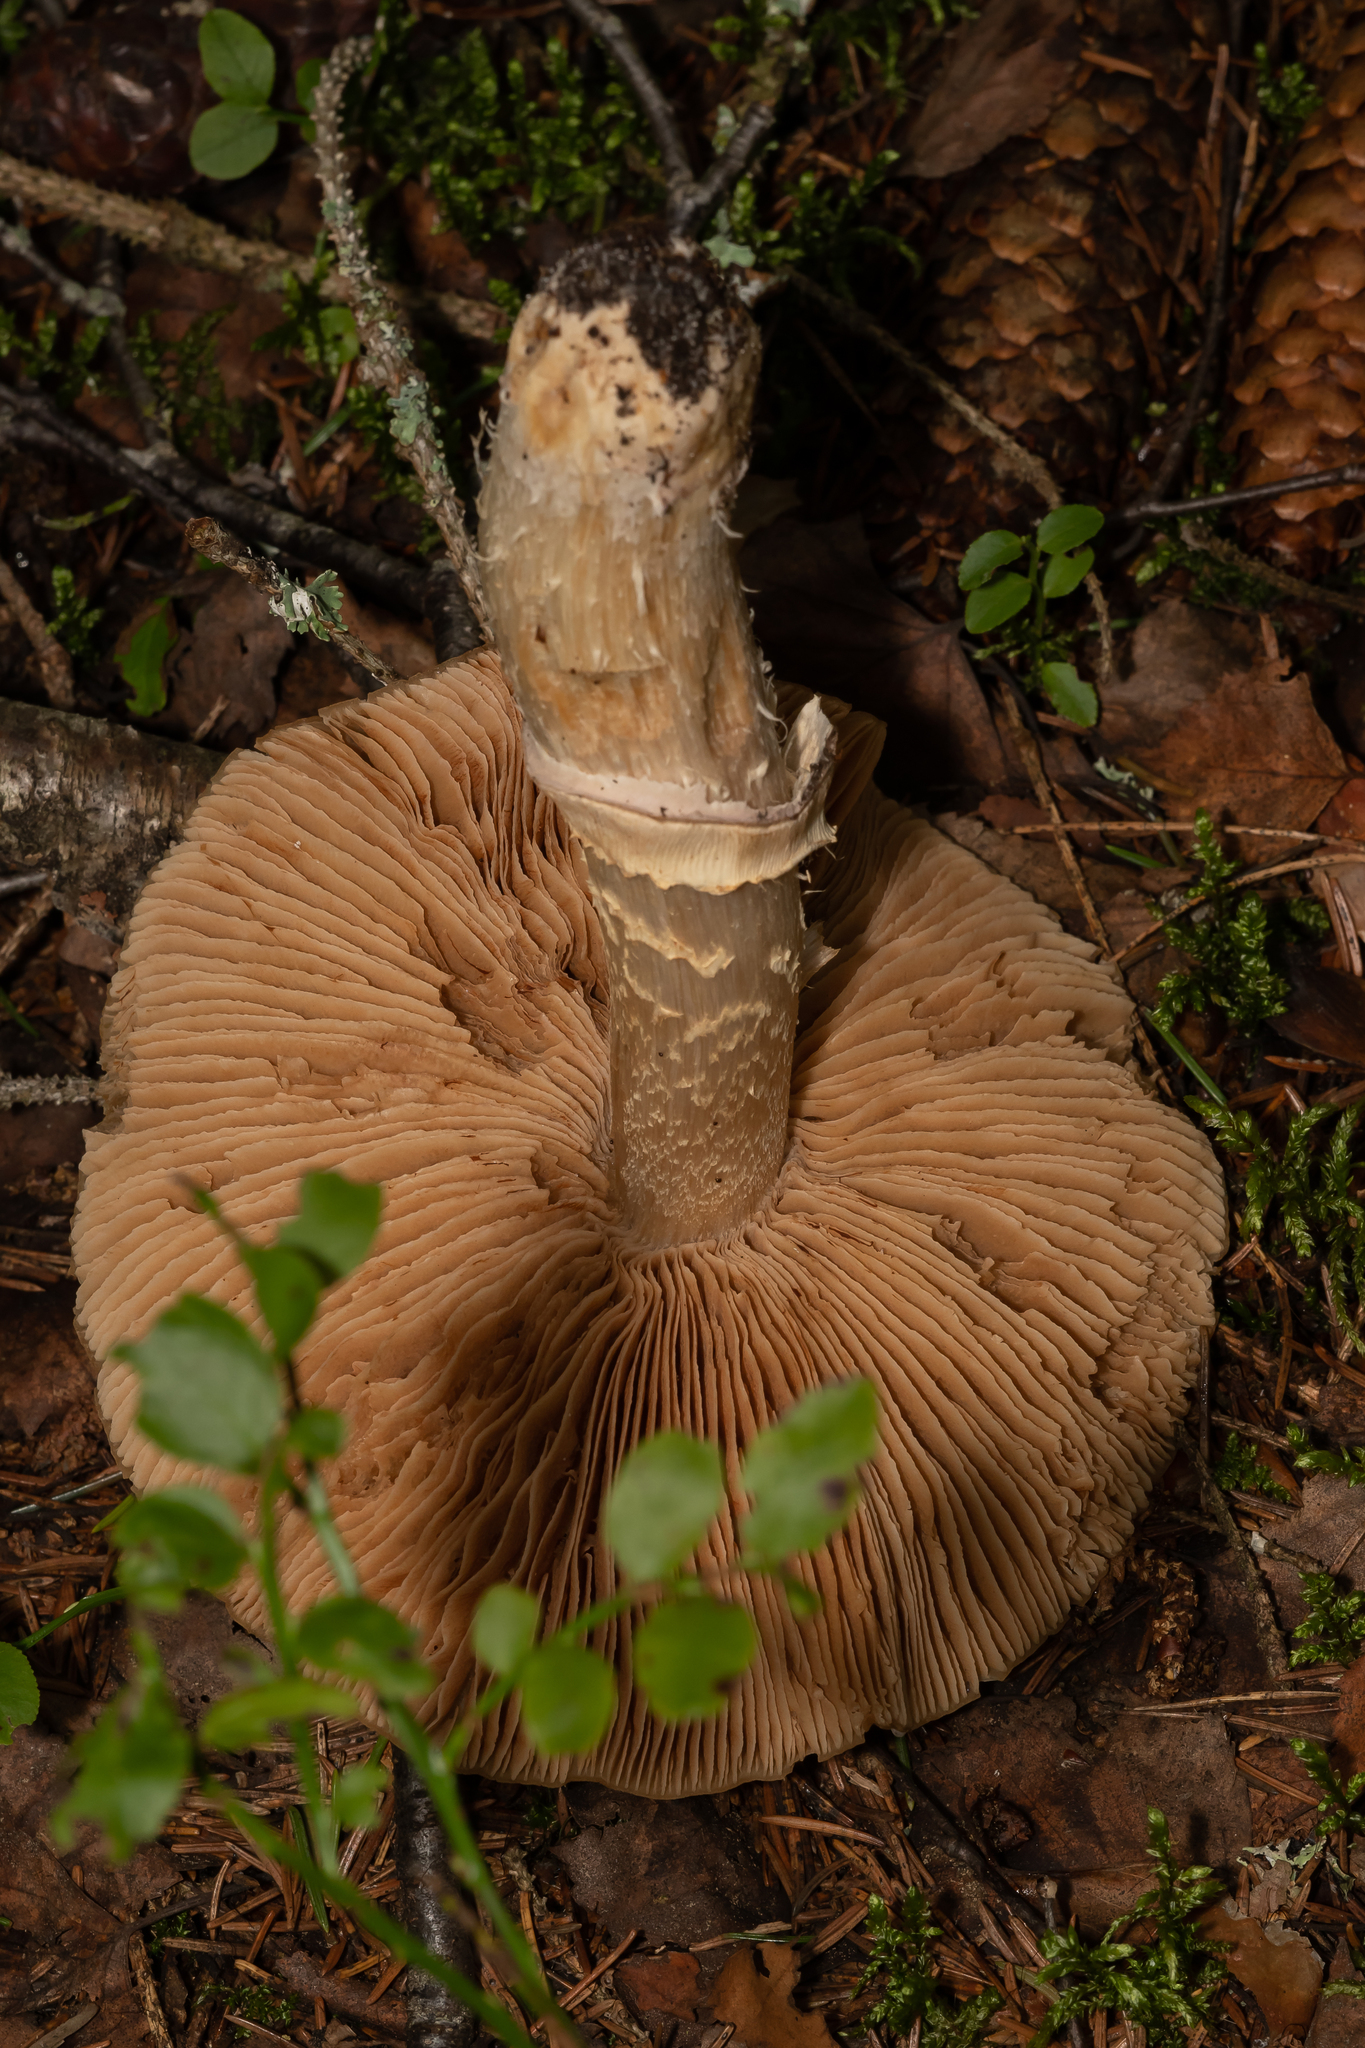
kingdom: Fungi
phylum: Basidiomycota
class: Agaricomycetes
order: Agaricales
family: Cortinariaceae
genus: Cortinarius
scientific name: Cortinarius caperatus
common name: The gypsy
